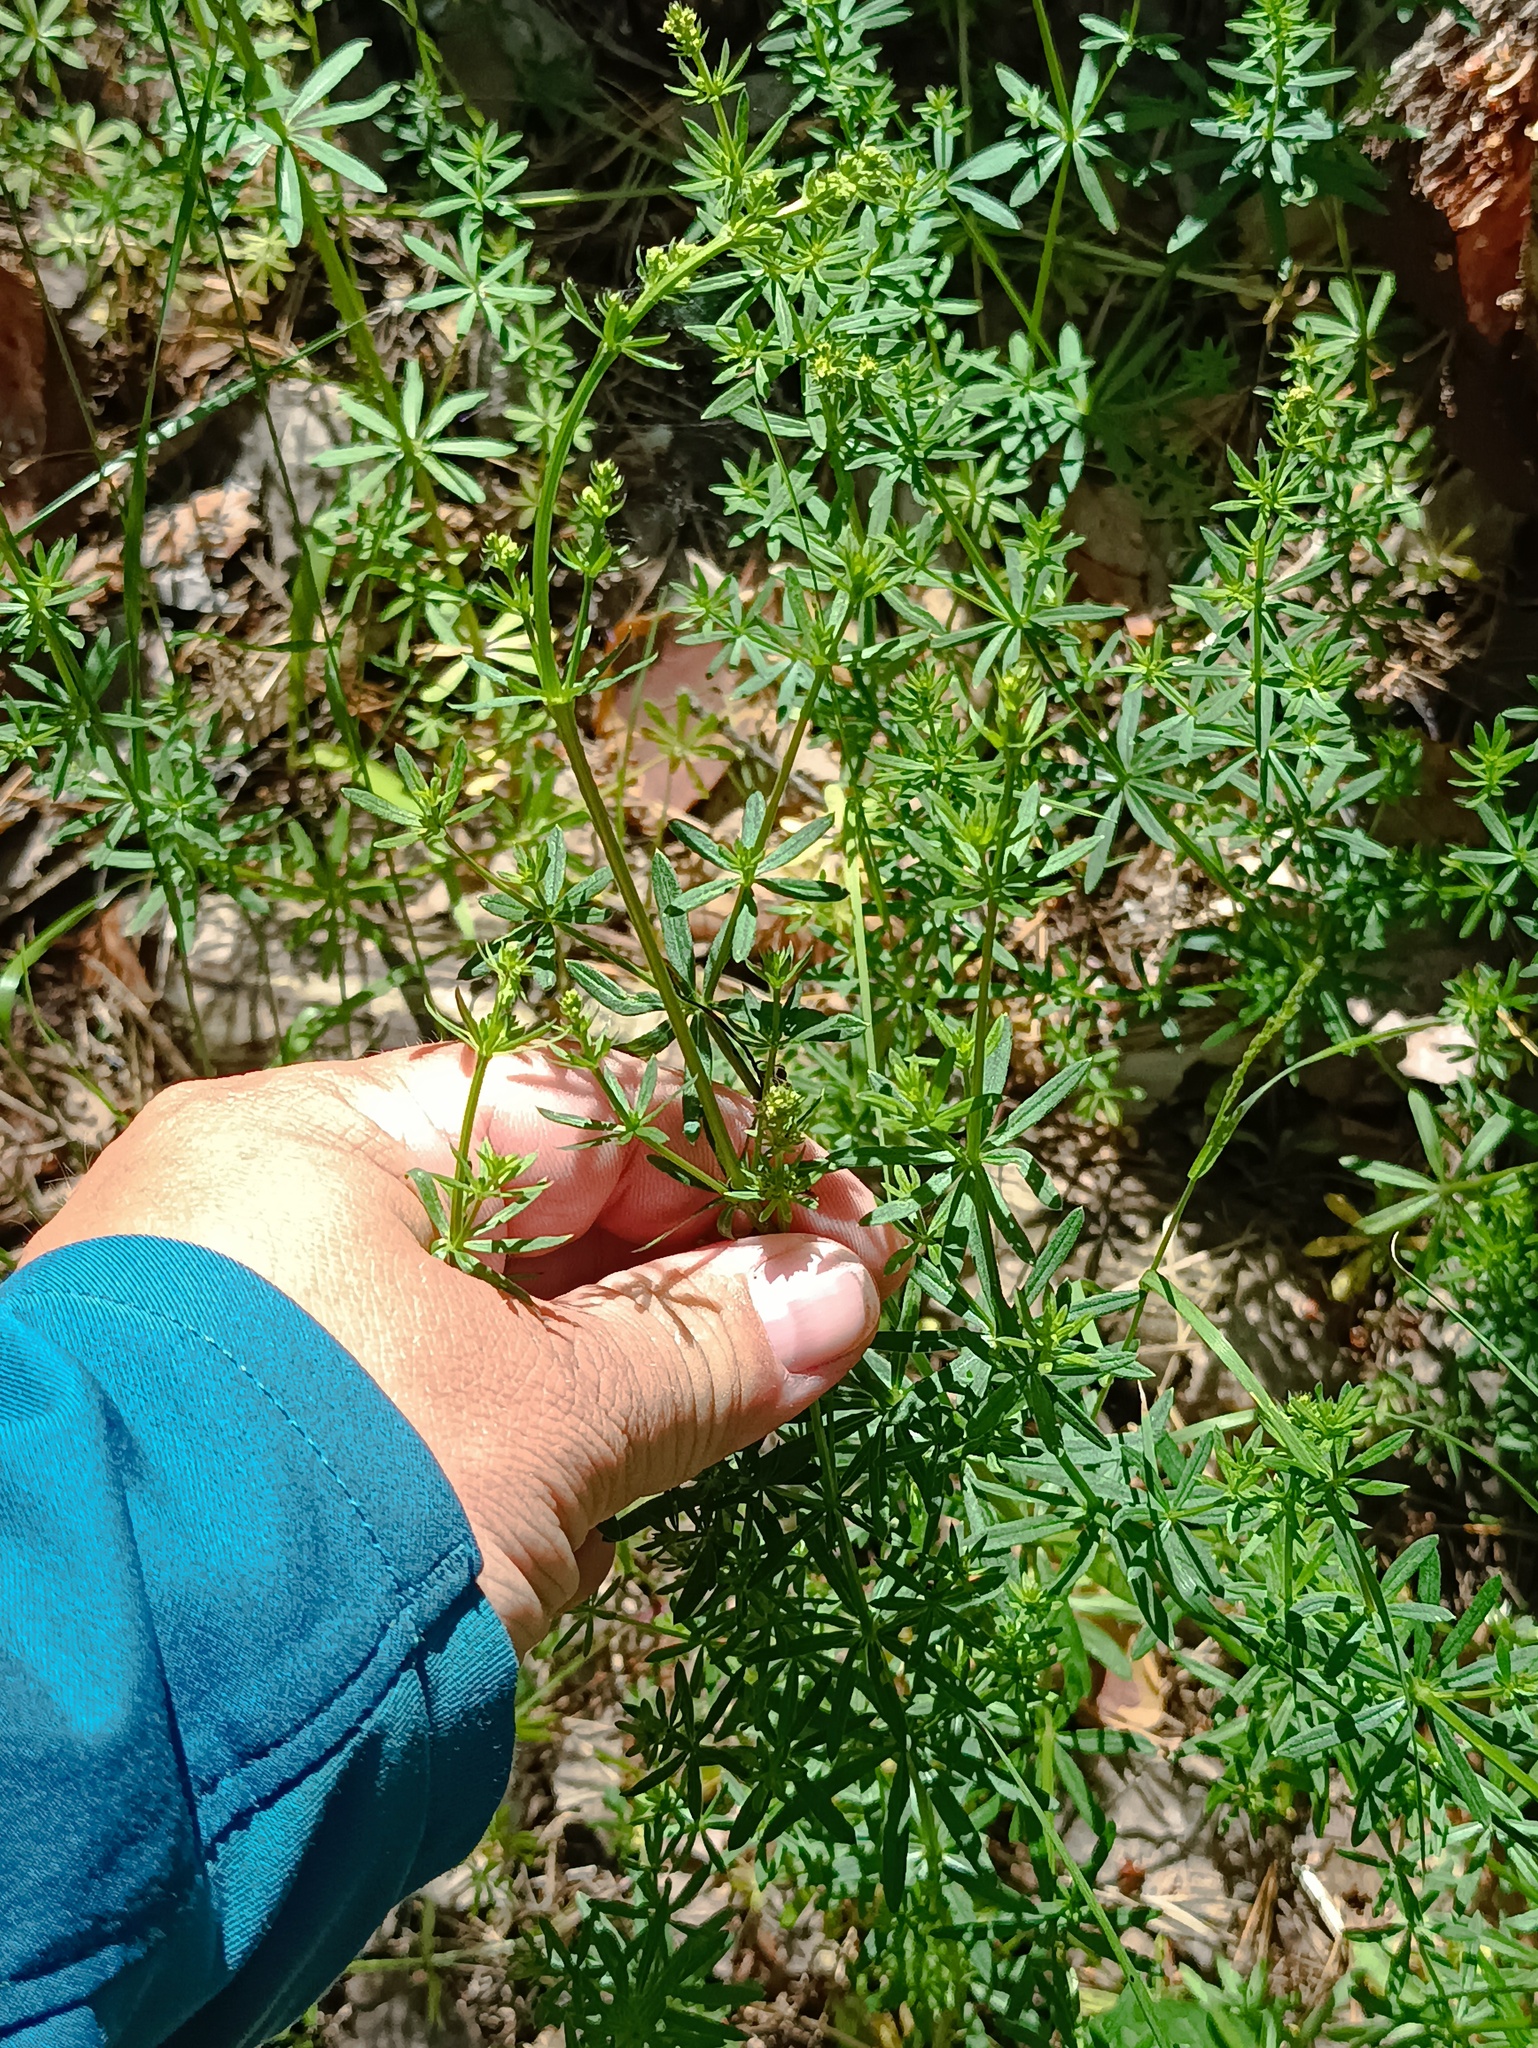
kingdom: Plantae
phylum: Tracheophyta
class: Magnoliopsida
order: Gentianales
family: Rubiaceae
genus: Galium
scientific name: Galium mollugo
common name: Hedge bedstraw
